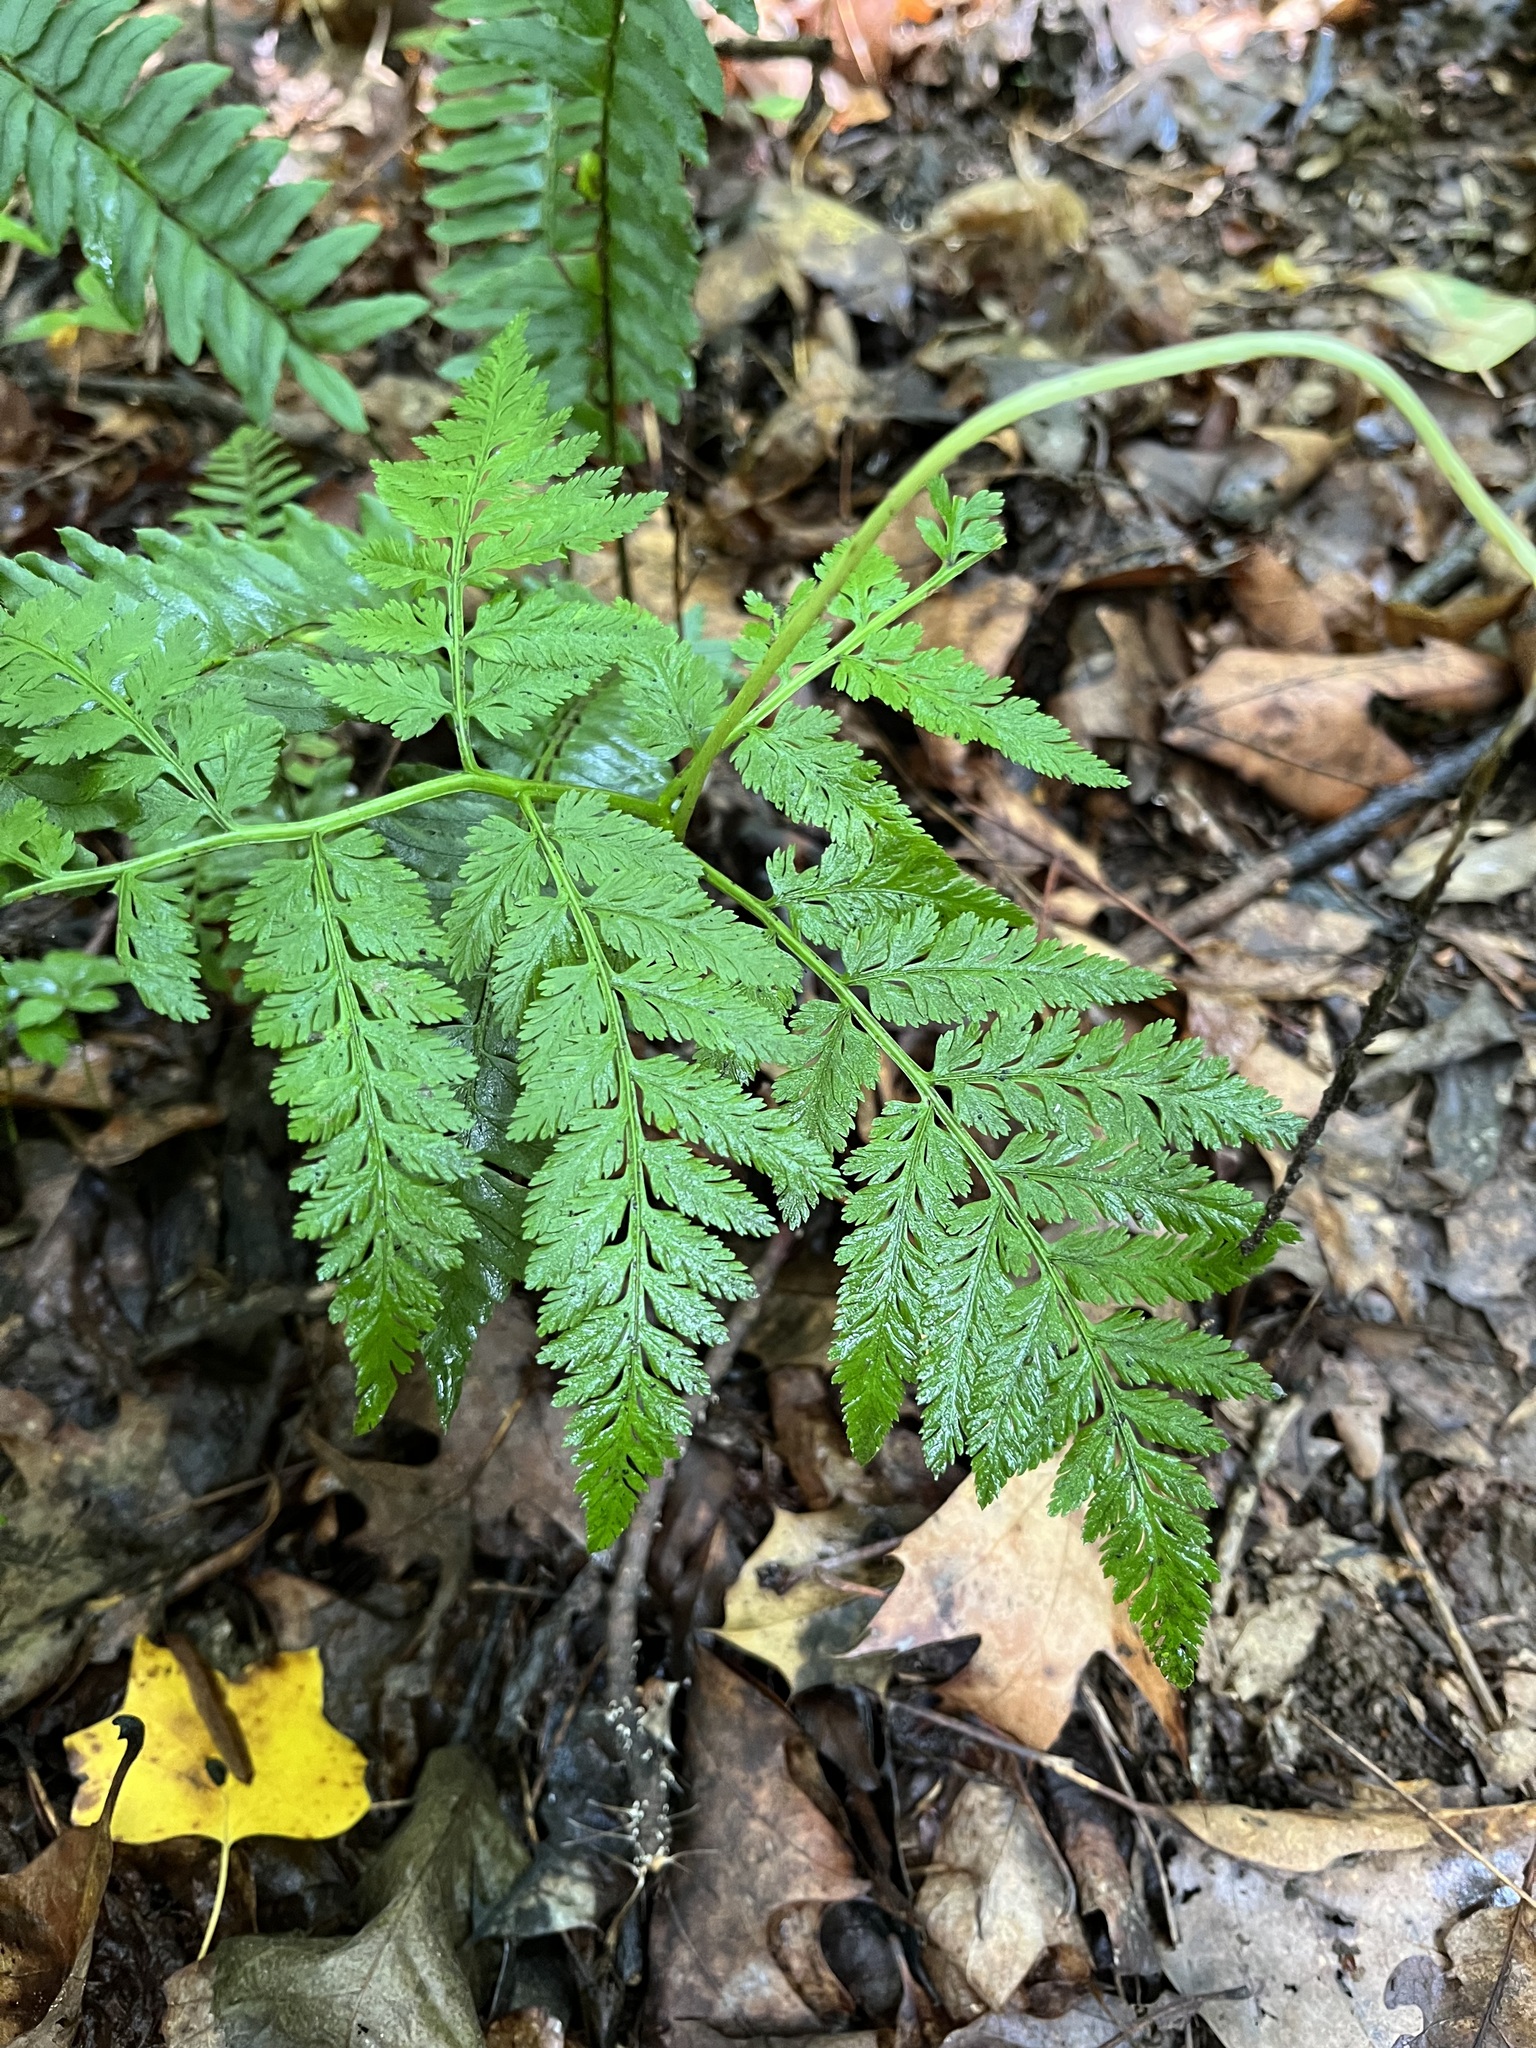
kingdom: Plantae
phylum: Tracheophyta
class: Polypodiopsida
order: Ophioglossales
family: Ophioglossaceae
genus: Botrypus
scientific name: Botrypus virginianus
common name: Common grapefern
